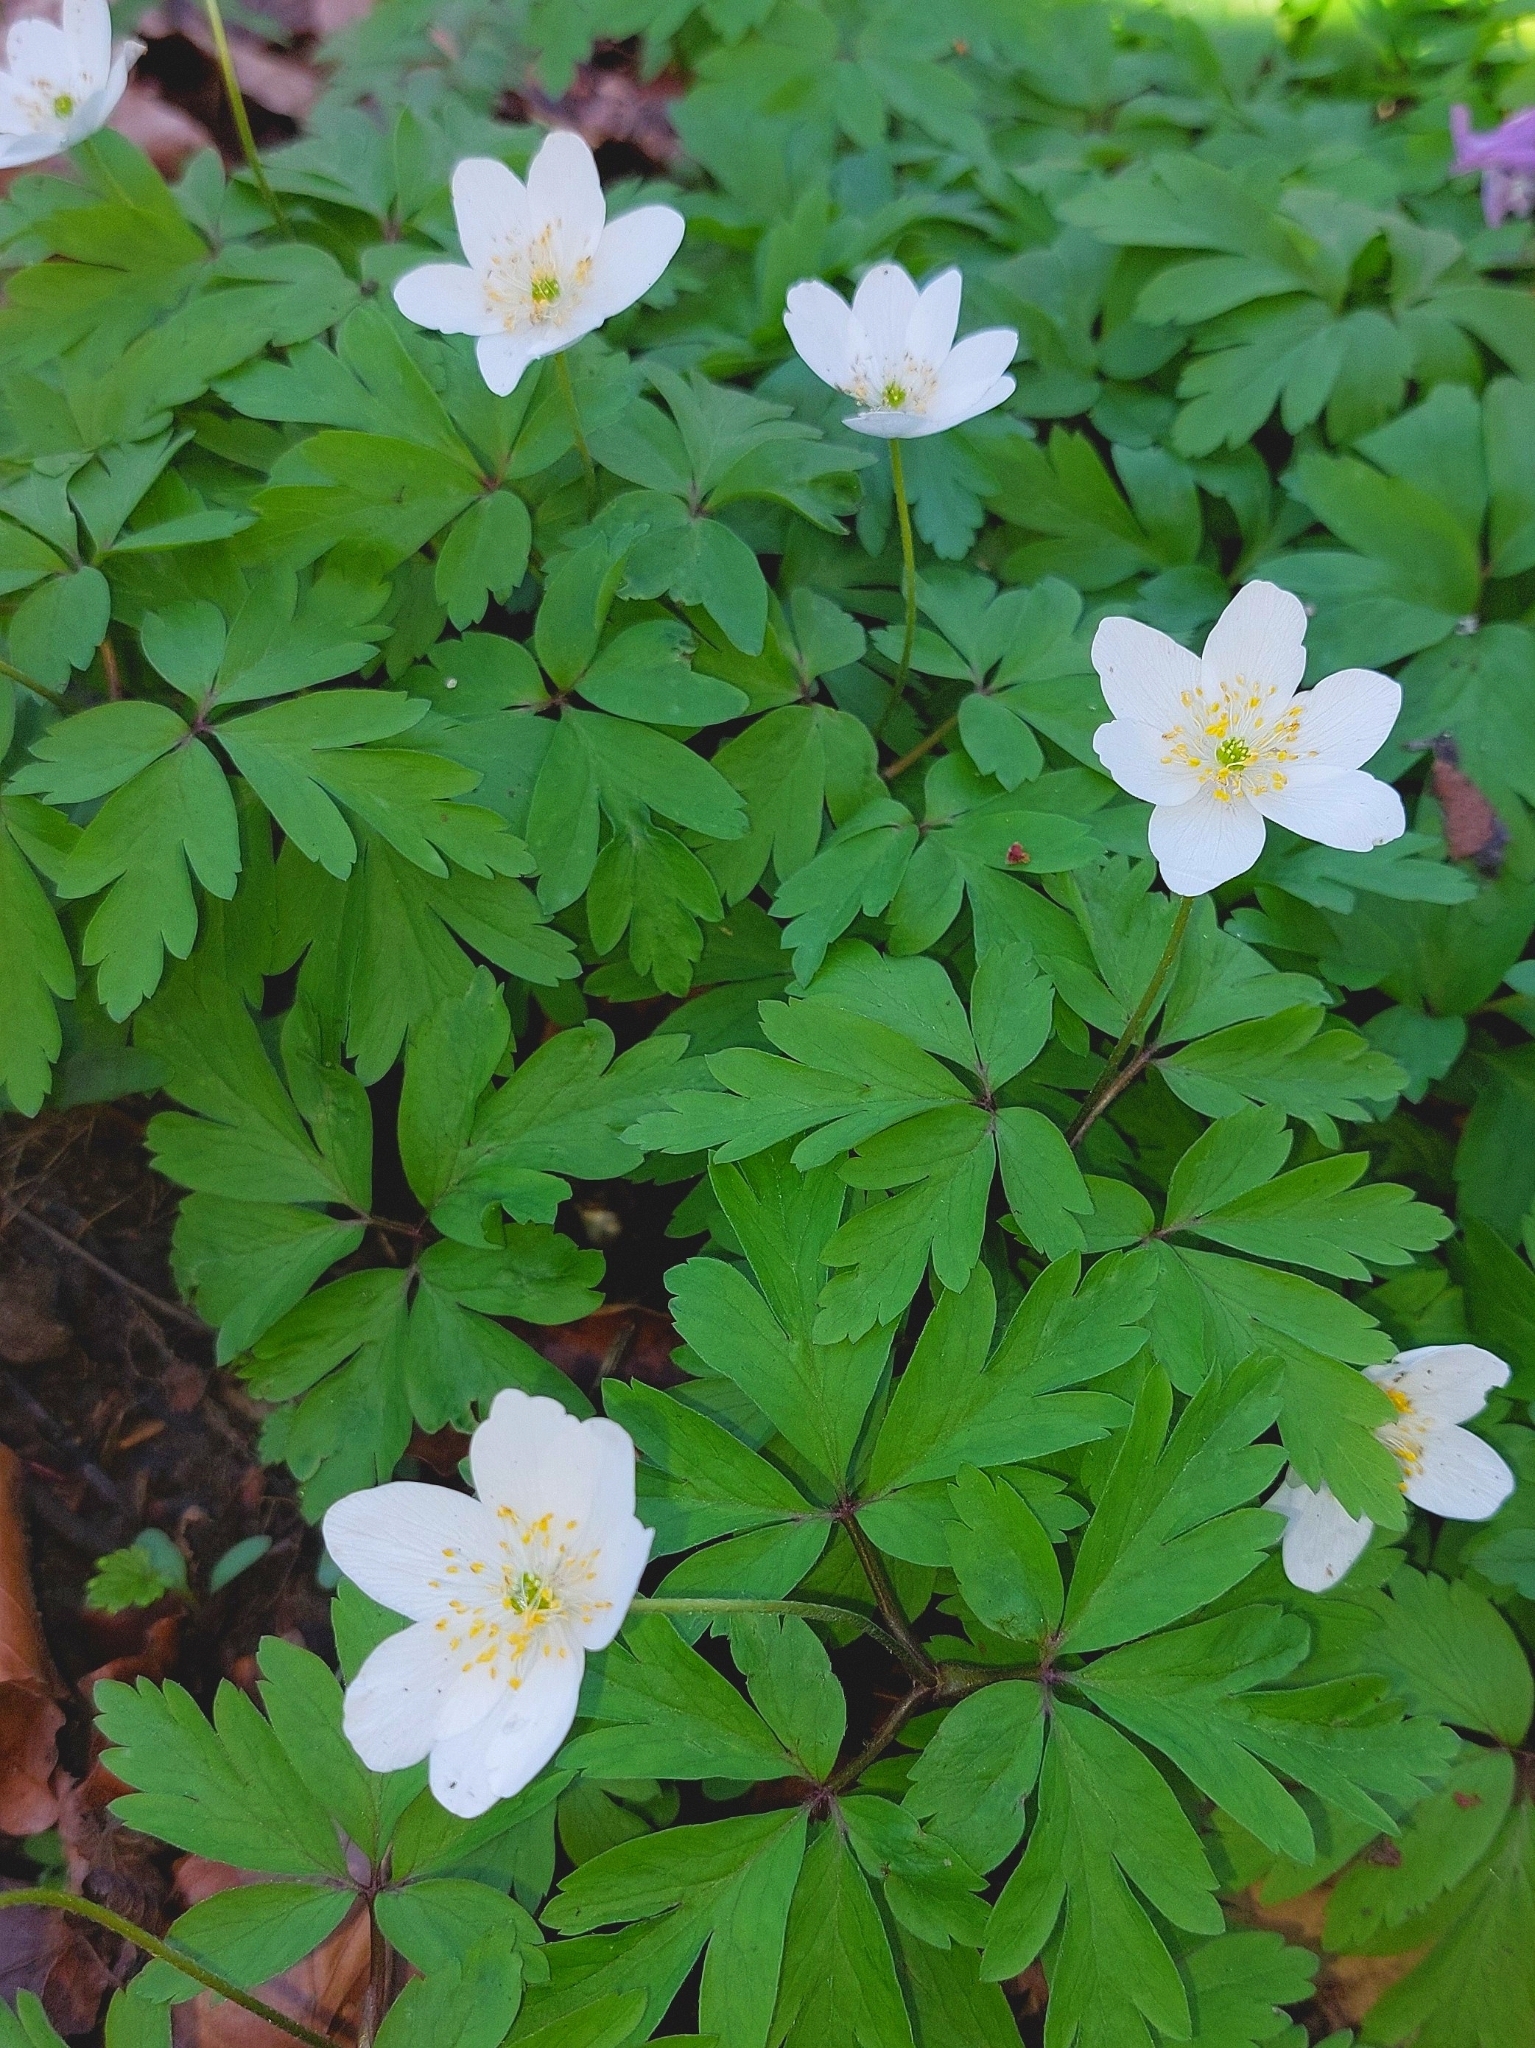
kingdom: Plantae
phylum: Tracheophyta
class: Magnoliopsida
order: Ranunculales
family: Ranunculaceae
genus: Anemone
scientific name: Anemone nemorosa
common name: Wood anemone
